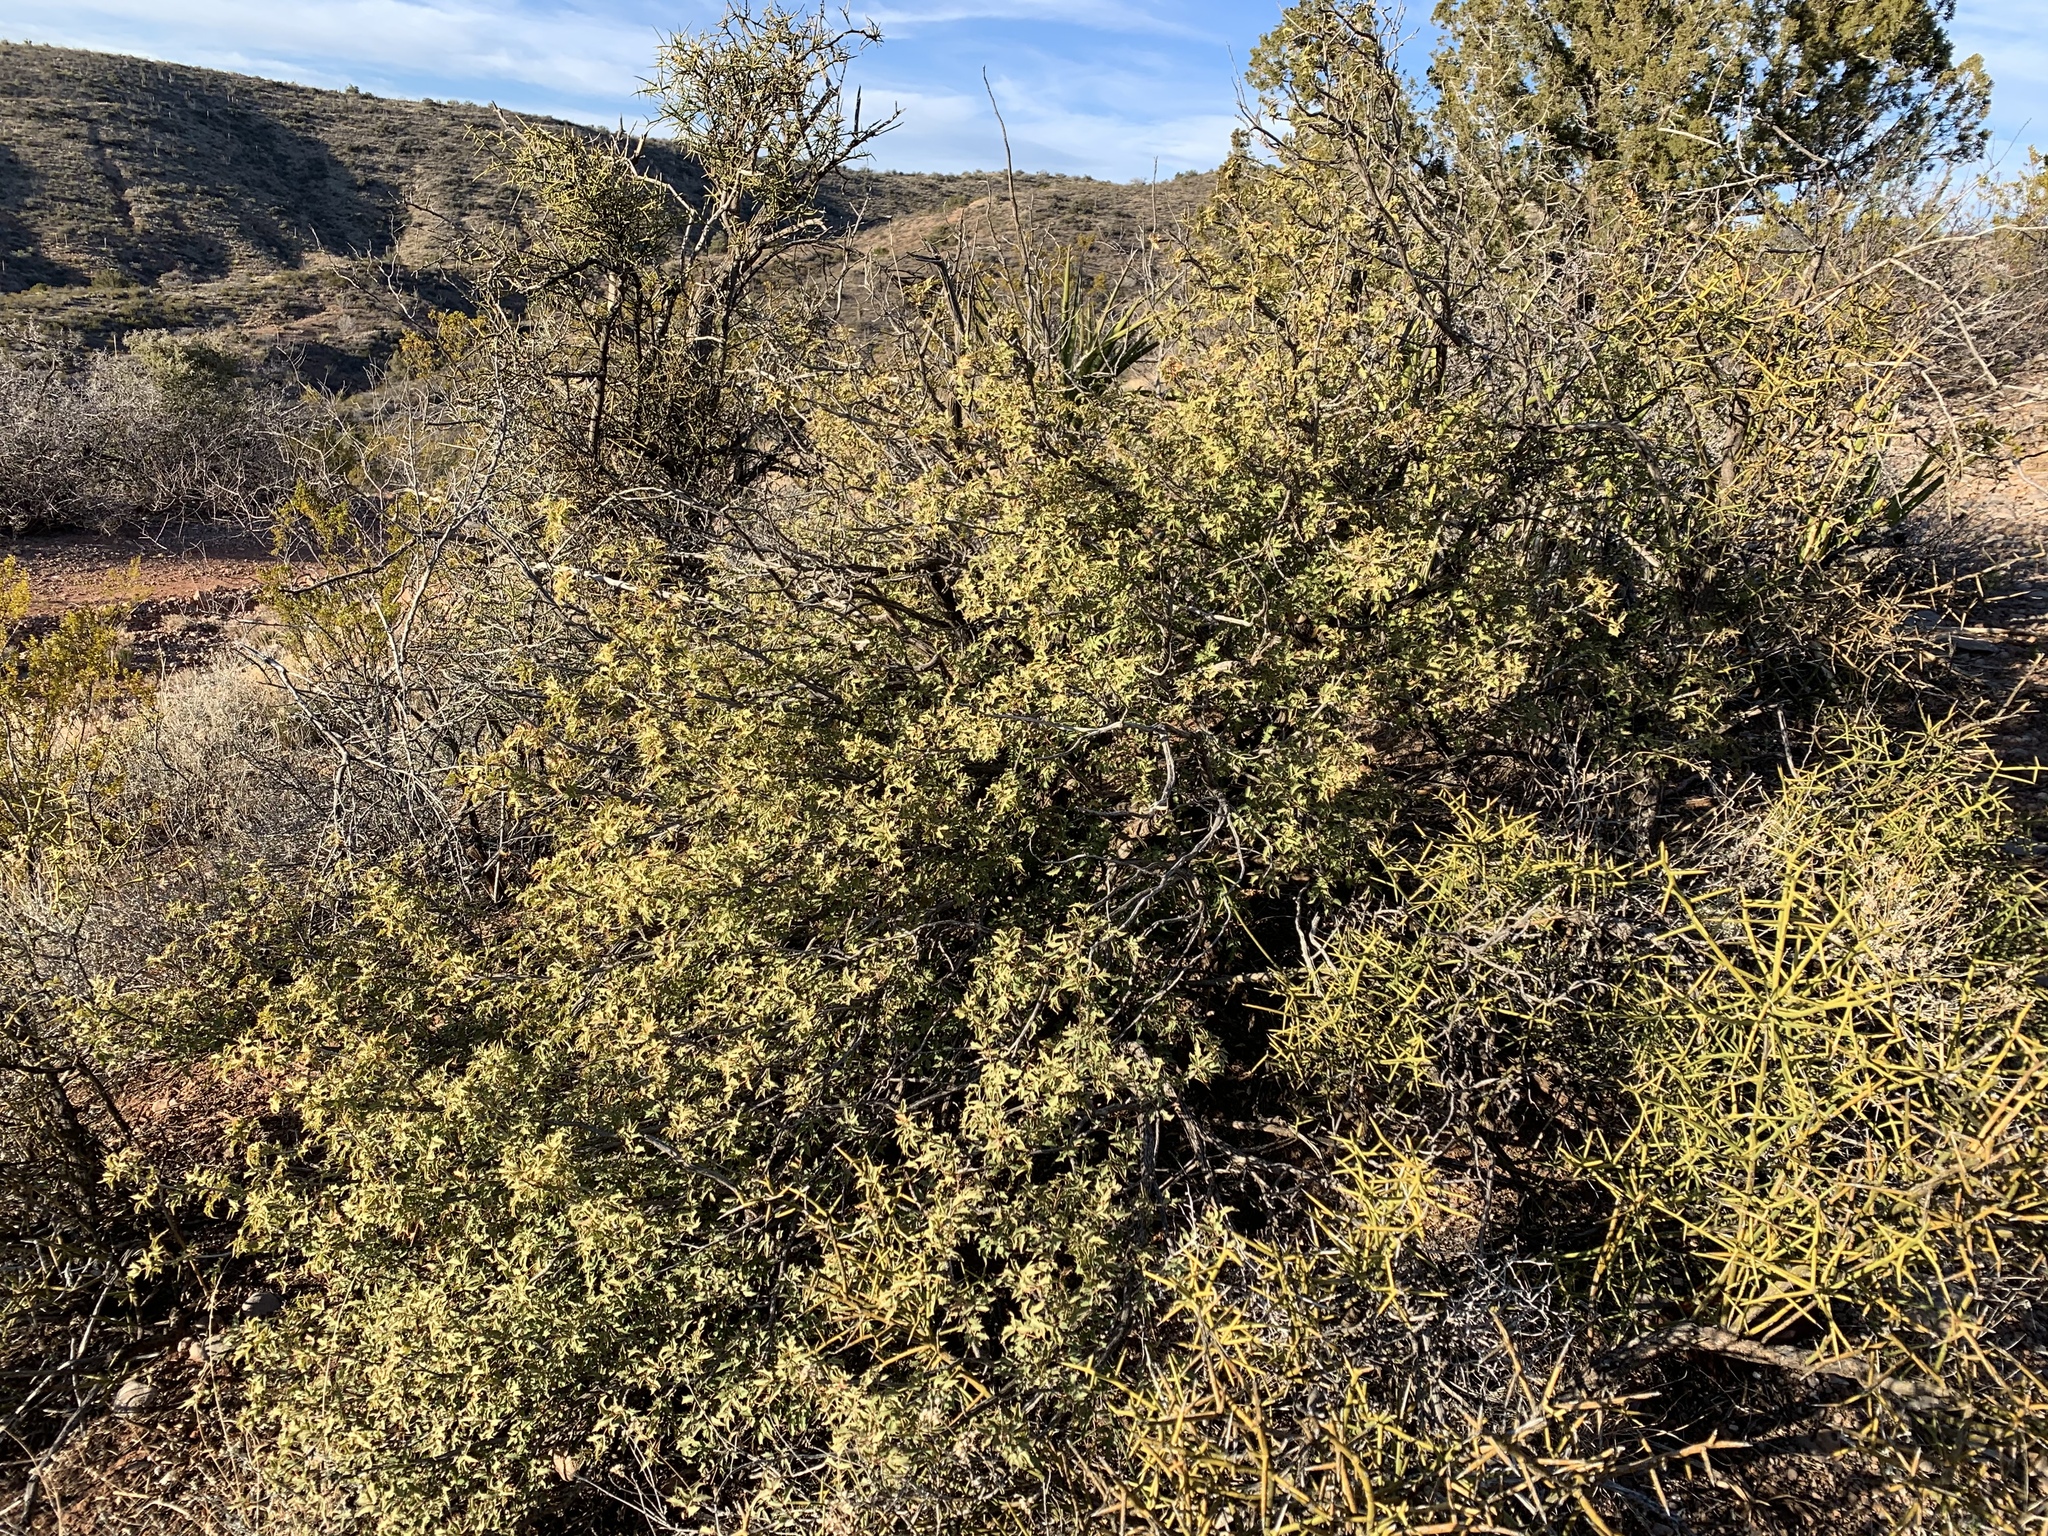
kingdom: Plantae
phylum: Tracheophyta
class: Magnoliopsida
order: Ranunculales
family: Berberidaceae
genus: Alloberberis
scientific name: Alloberberis haematocarpa
